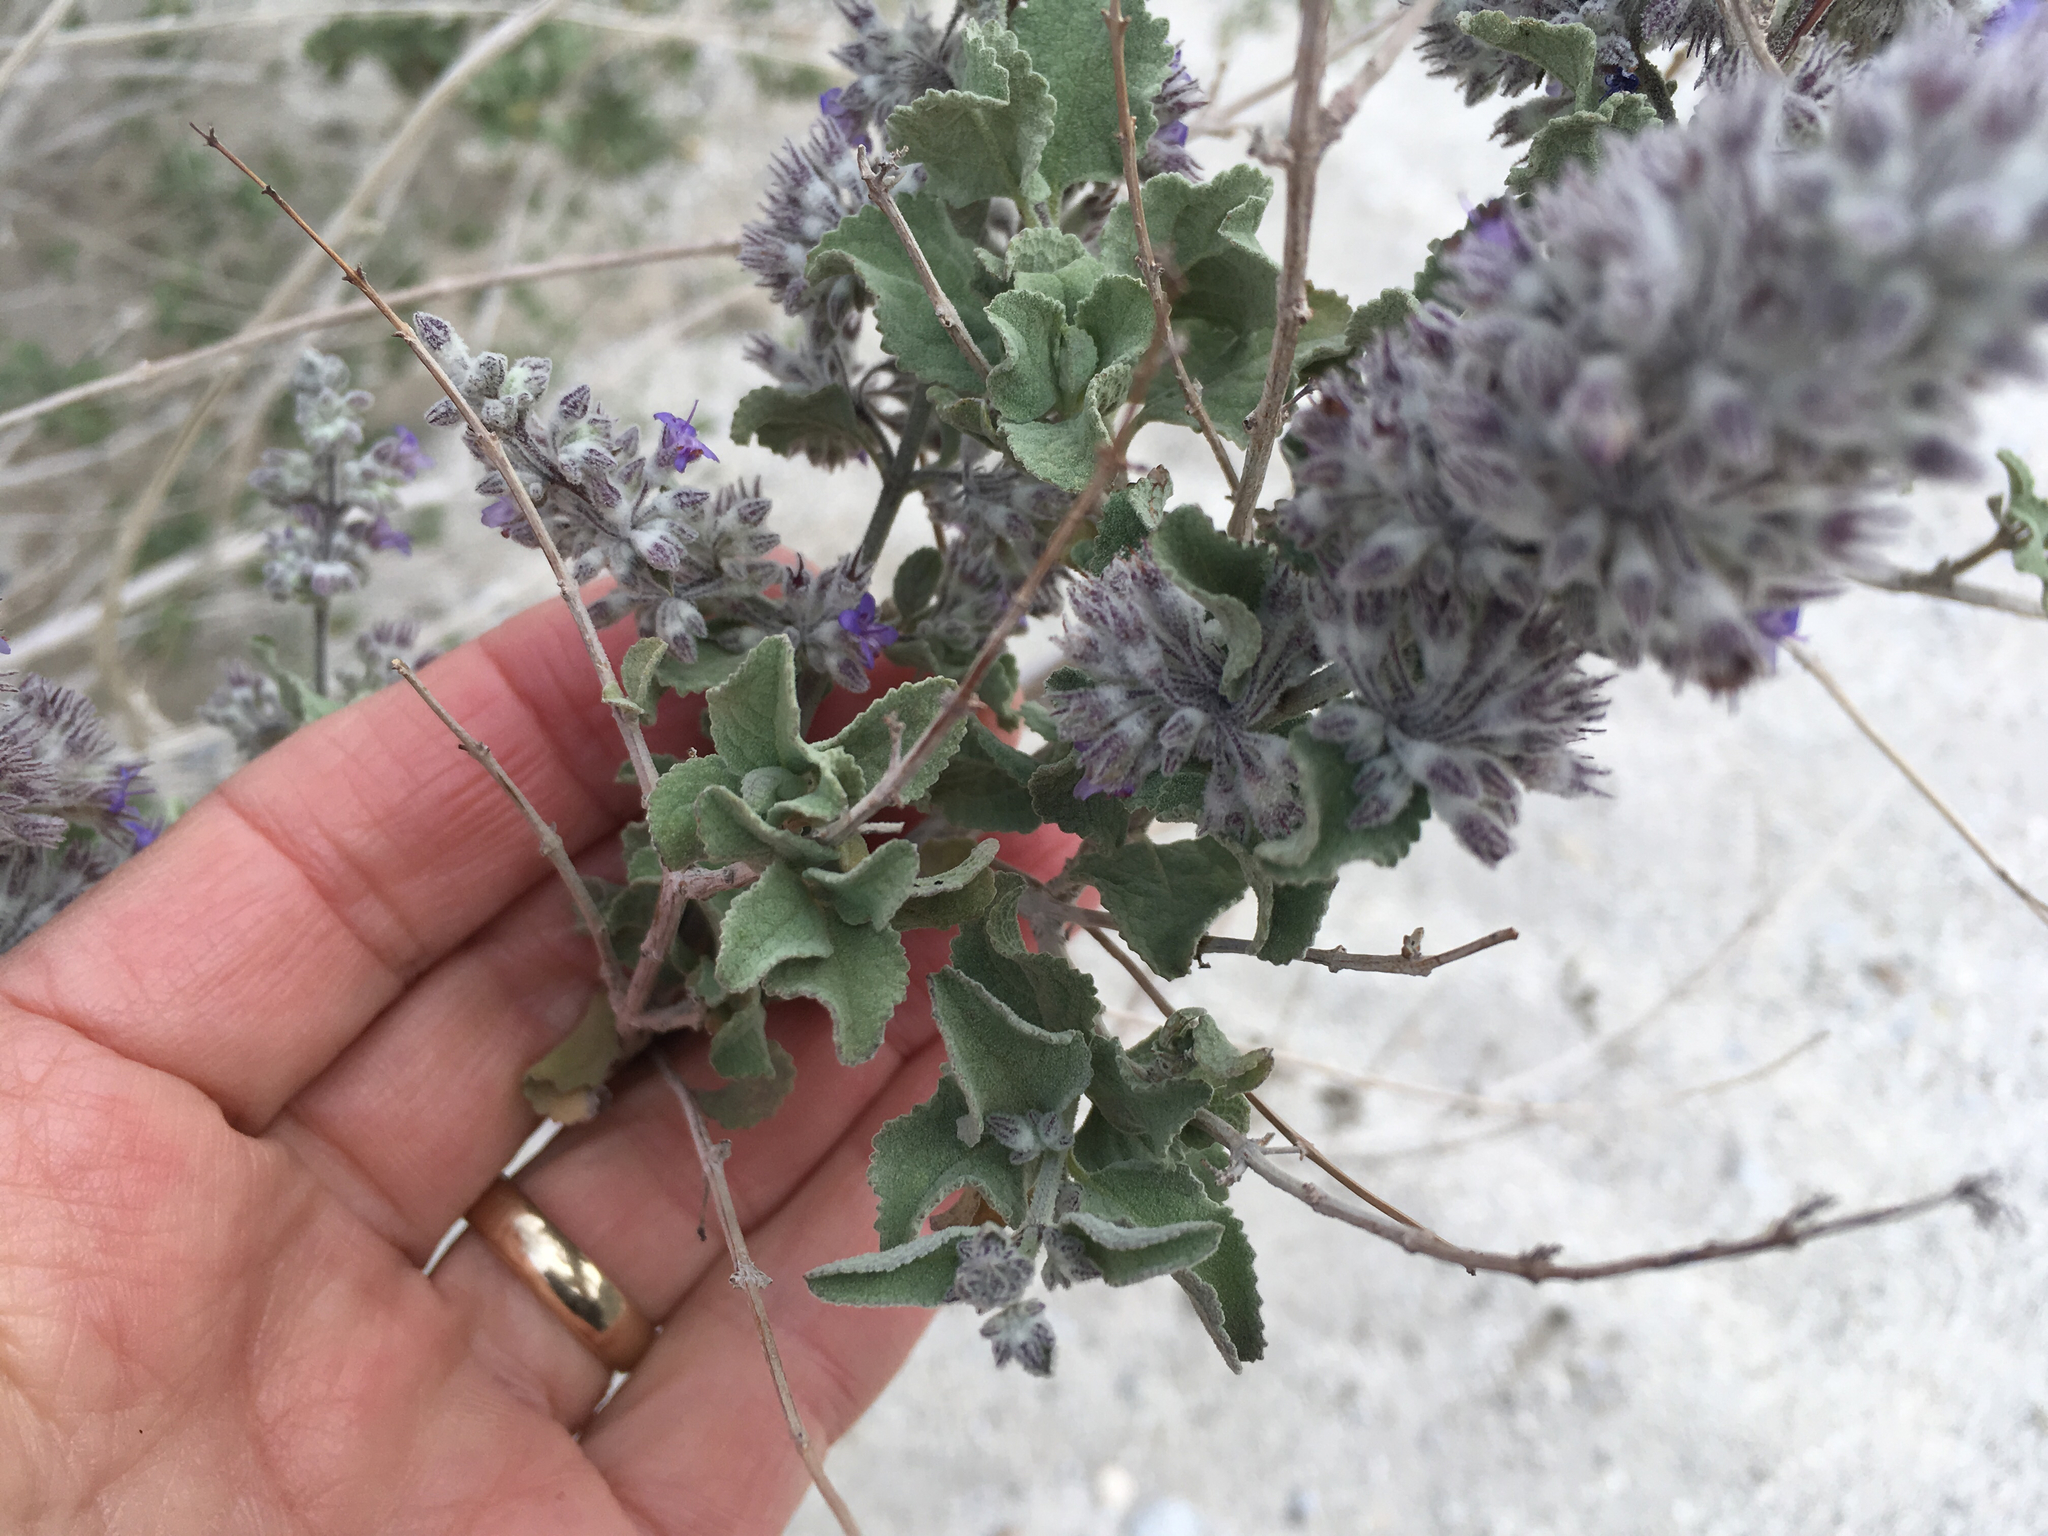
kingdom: Plantae
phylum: Tracheophyta
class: Magnoliopsida
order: Lamiales
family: Lamiaceae
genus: Condea
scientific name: Condea emoryi
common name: Chia
